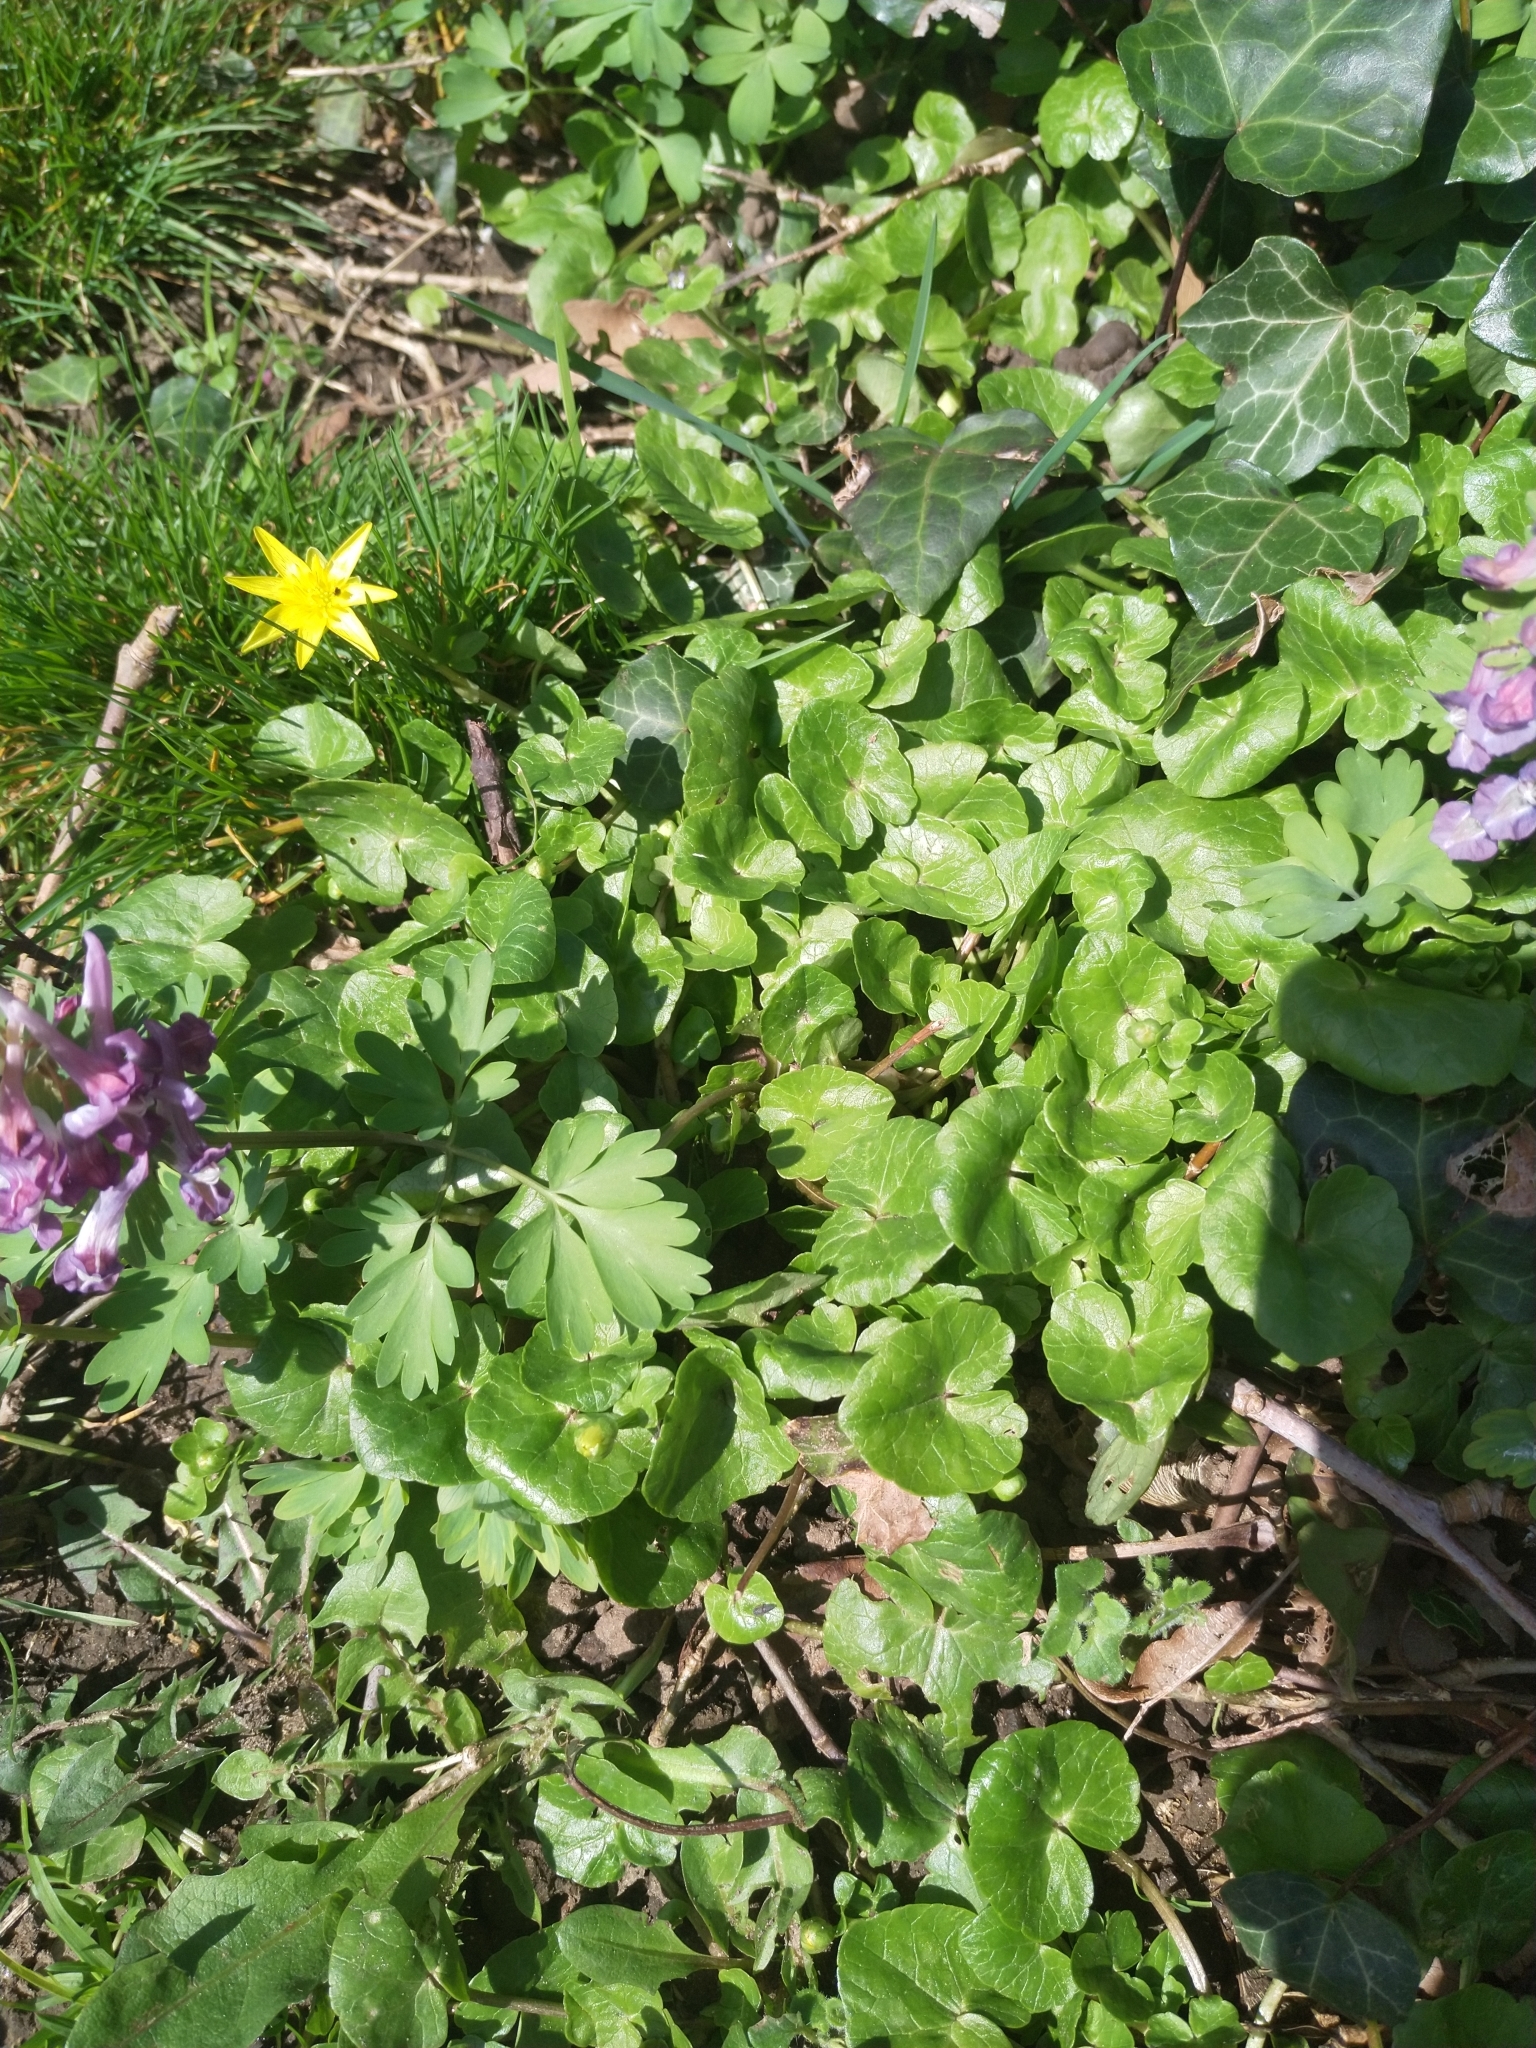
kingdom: Plantae
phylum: Tracheophyta
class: Magnoliopsida
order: Ranunculales
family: Ranunculaceae
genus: Ficaria
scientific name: Ficaria verna
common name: Lesser celandine
